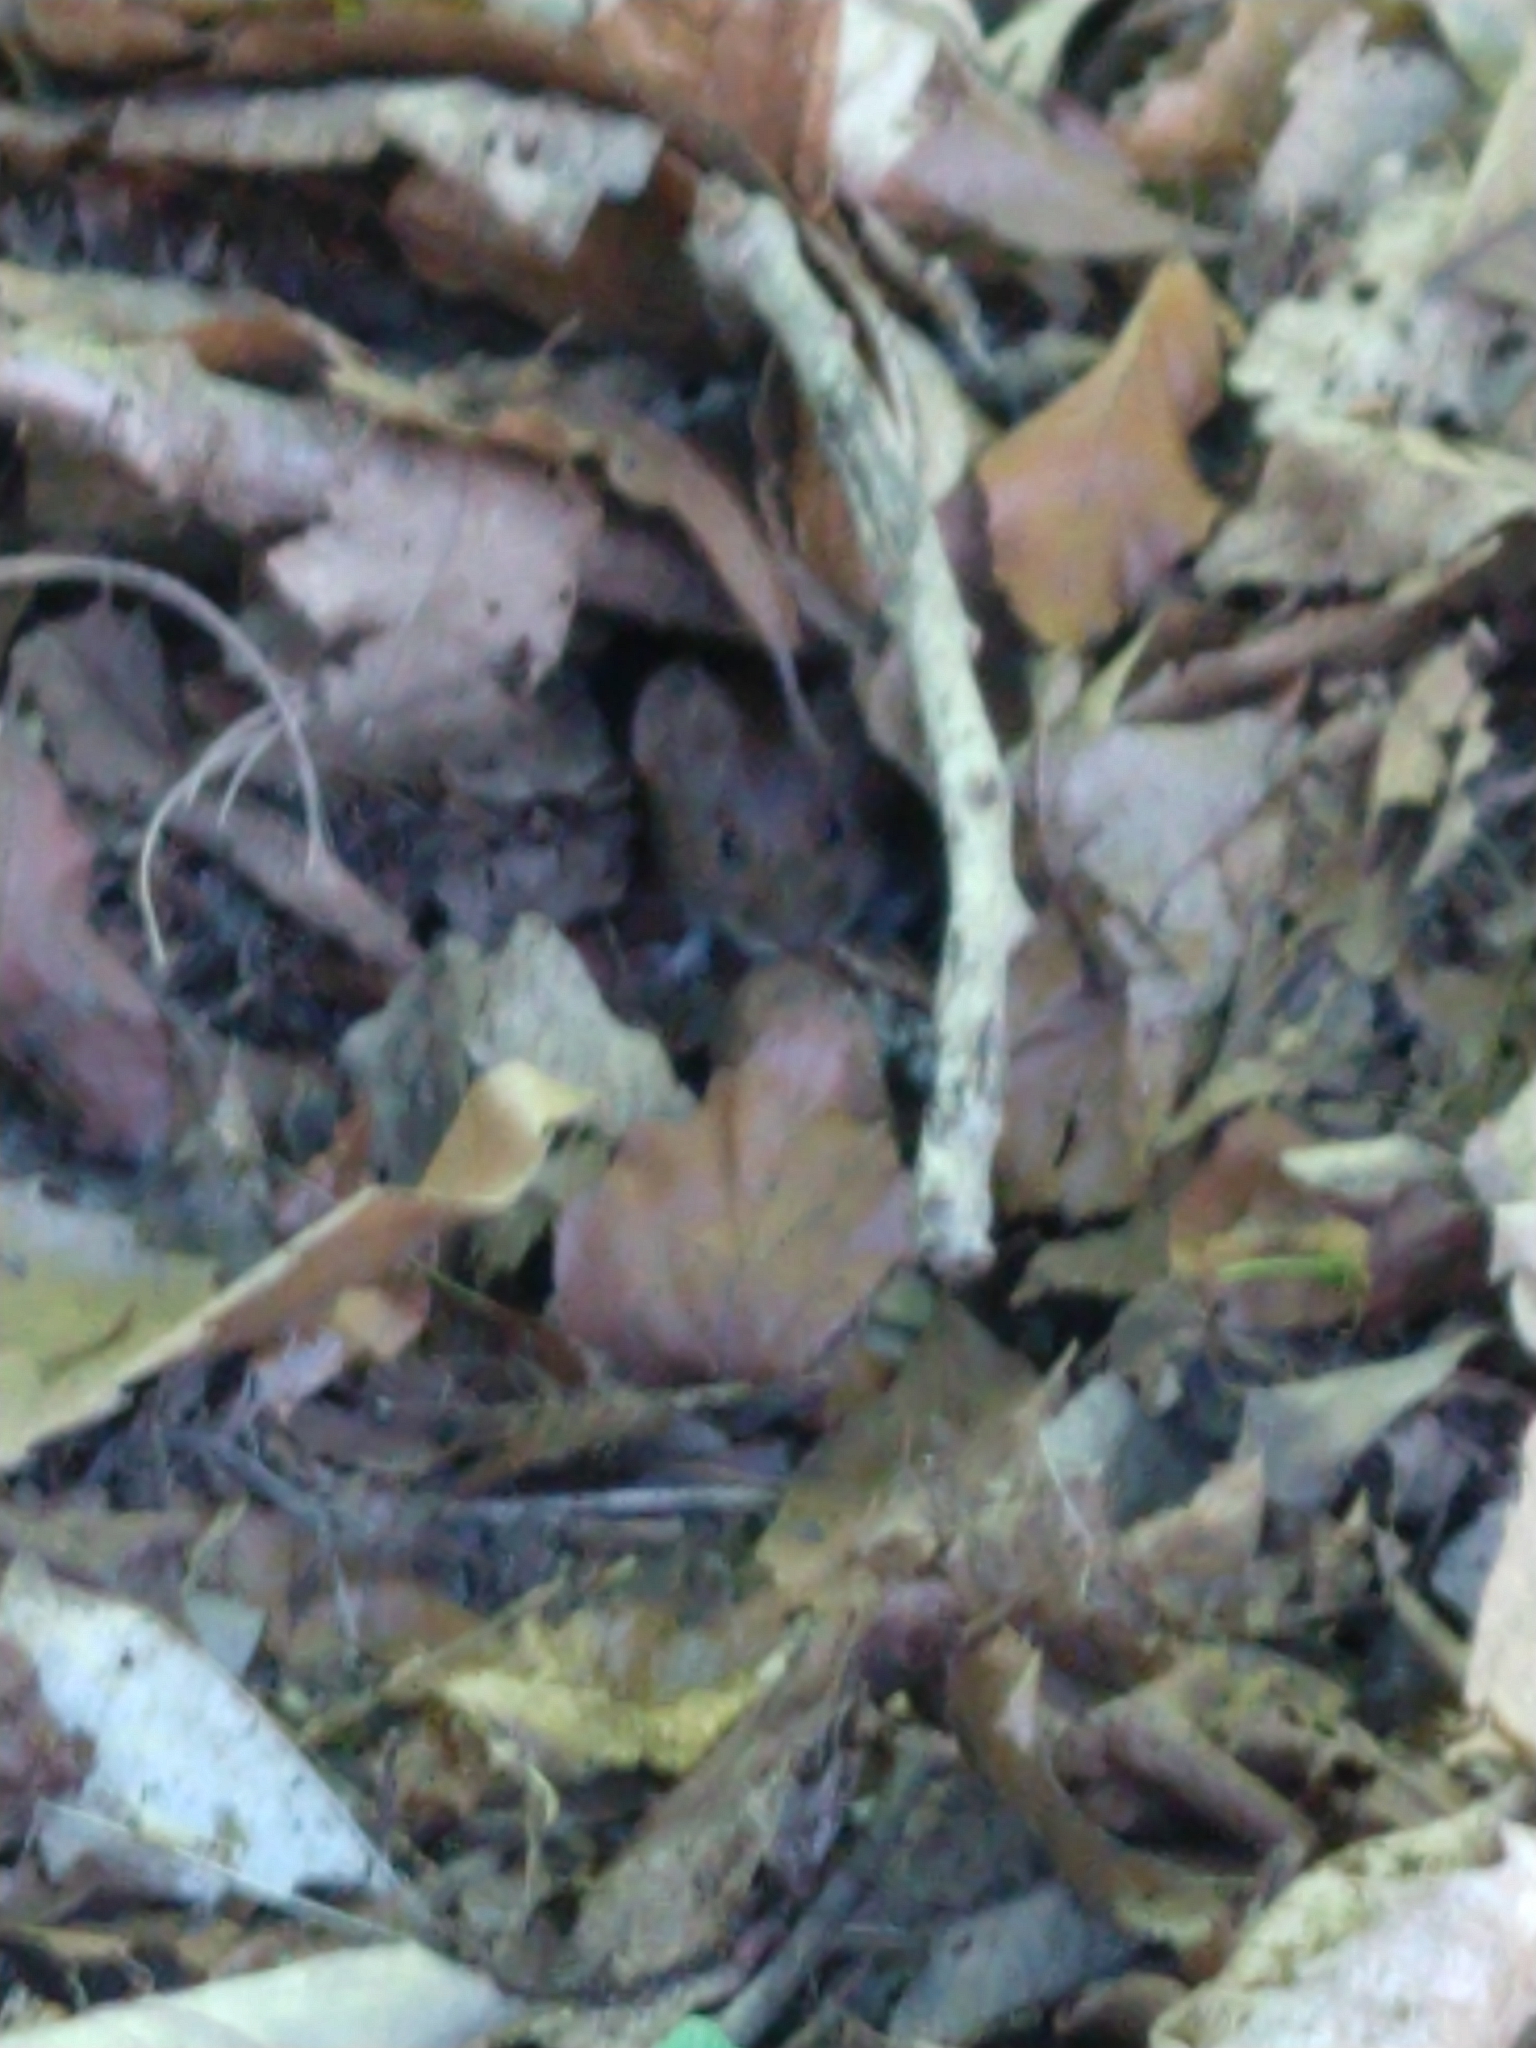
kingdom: Animalia
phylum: Chordata
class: Mammalia
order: Rodentia
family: Muridae
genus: Apodemus
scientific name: Apodemus sylvaticus
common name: Wood mouse
